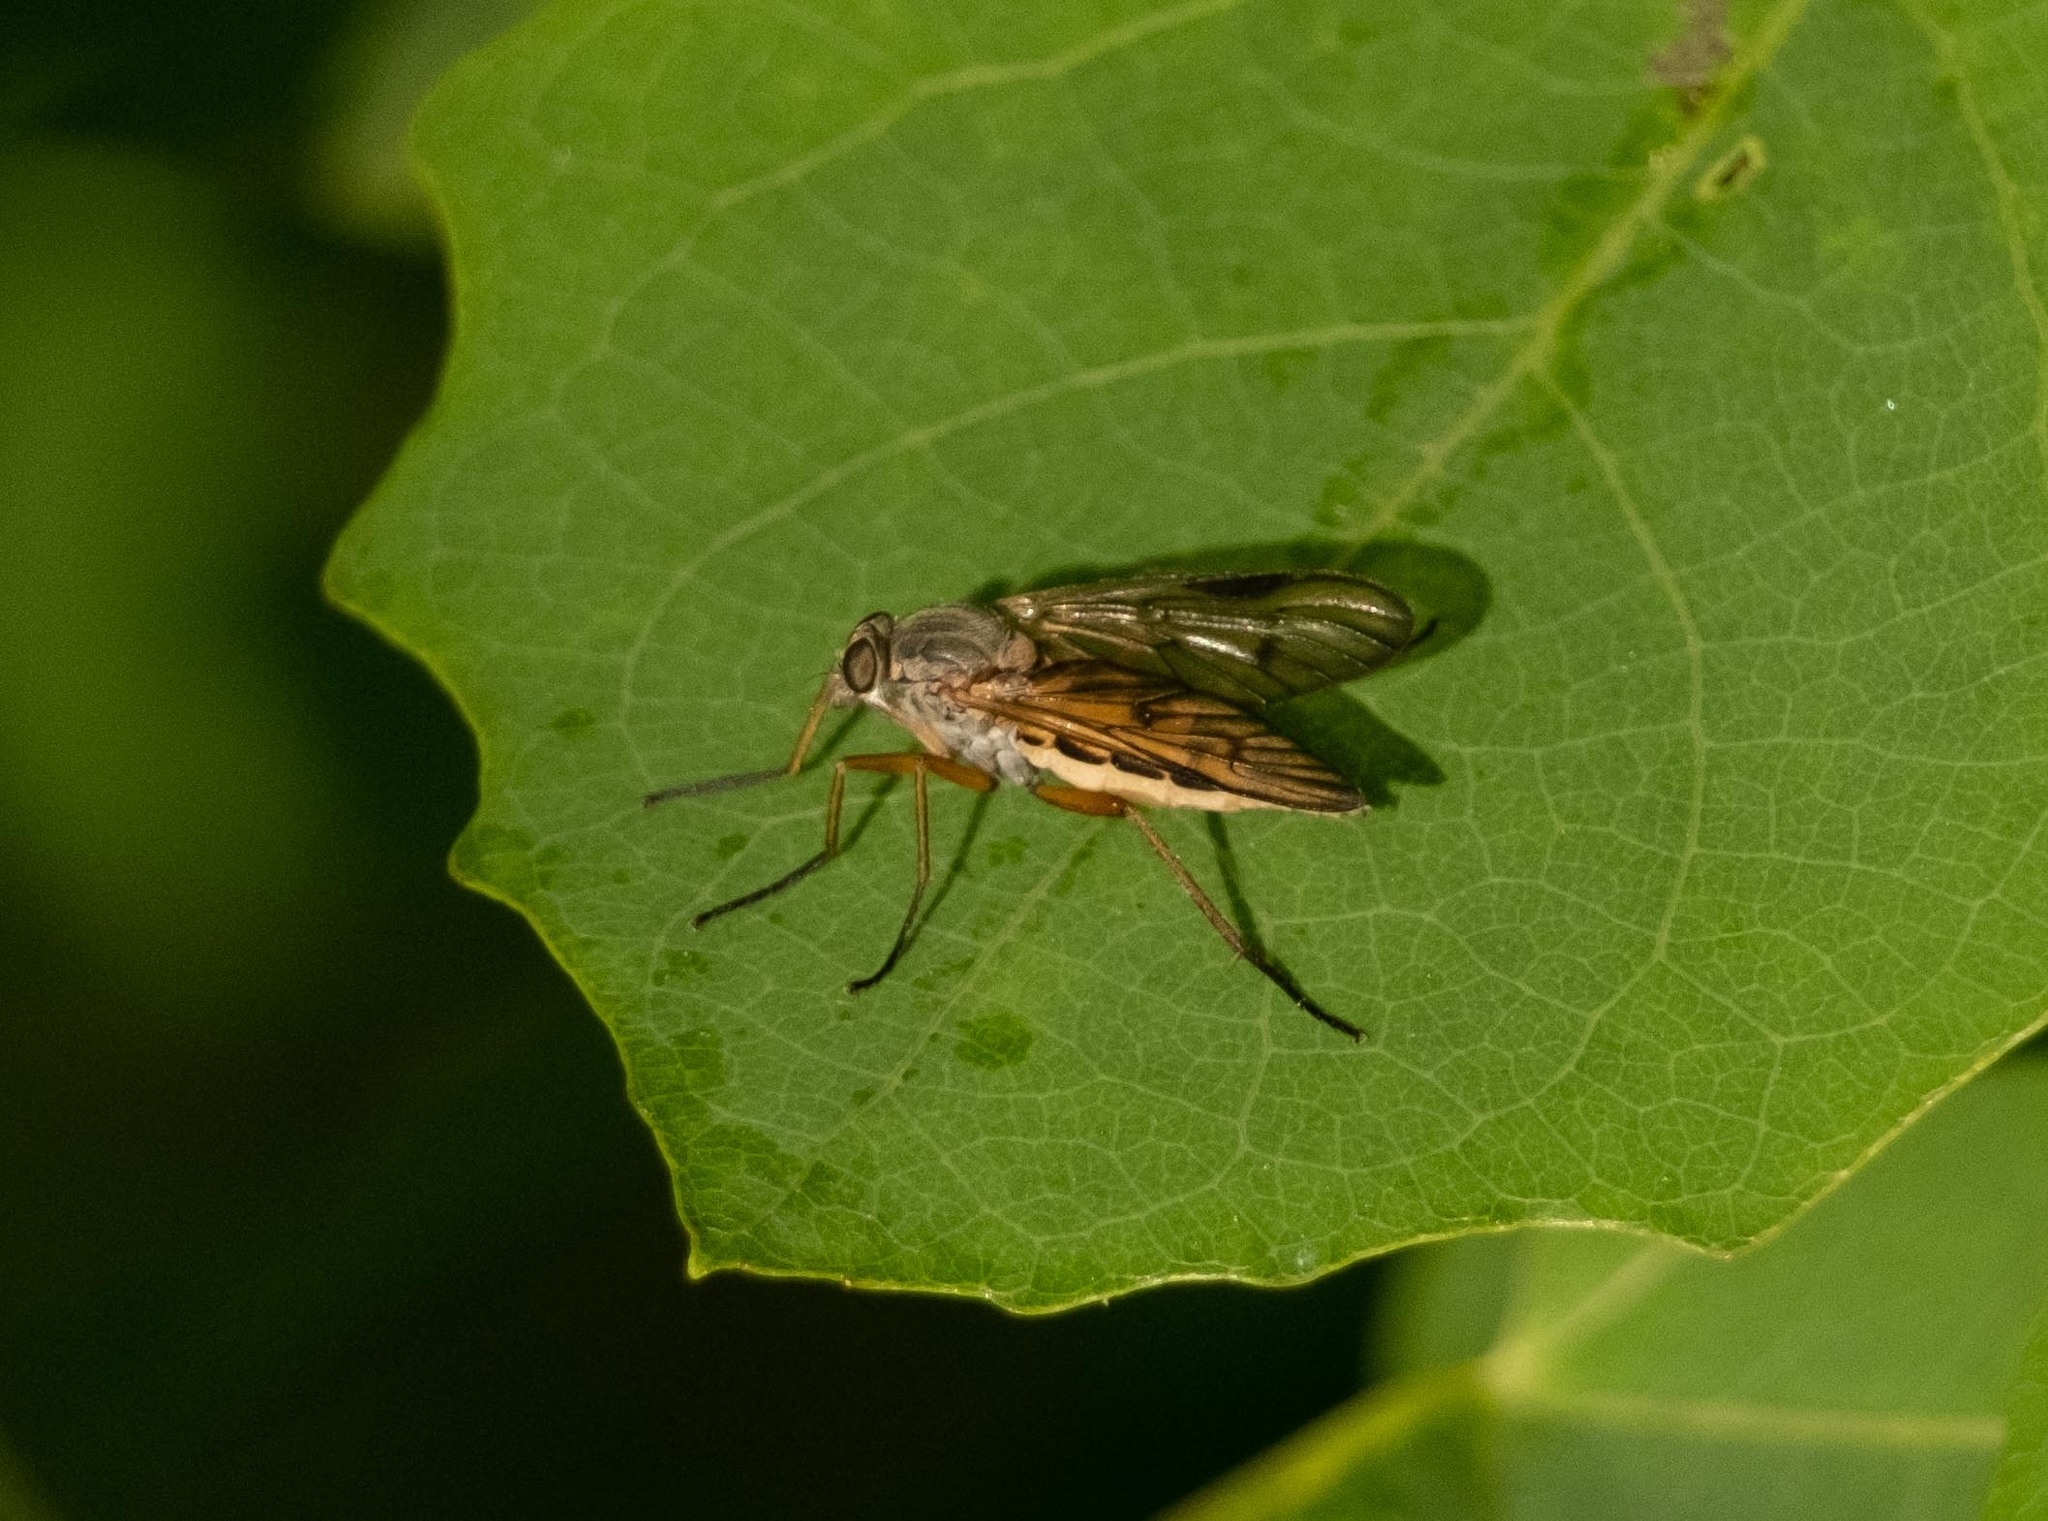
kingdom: Animalia
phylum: Arthropoda
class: Insecta
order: Diptera
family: Rhagionidae
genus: Rhagio
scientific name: Rhagio scolopacea
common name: Downlooker snipefly
